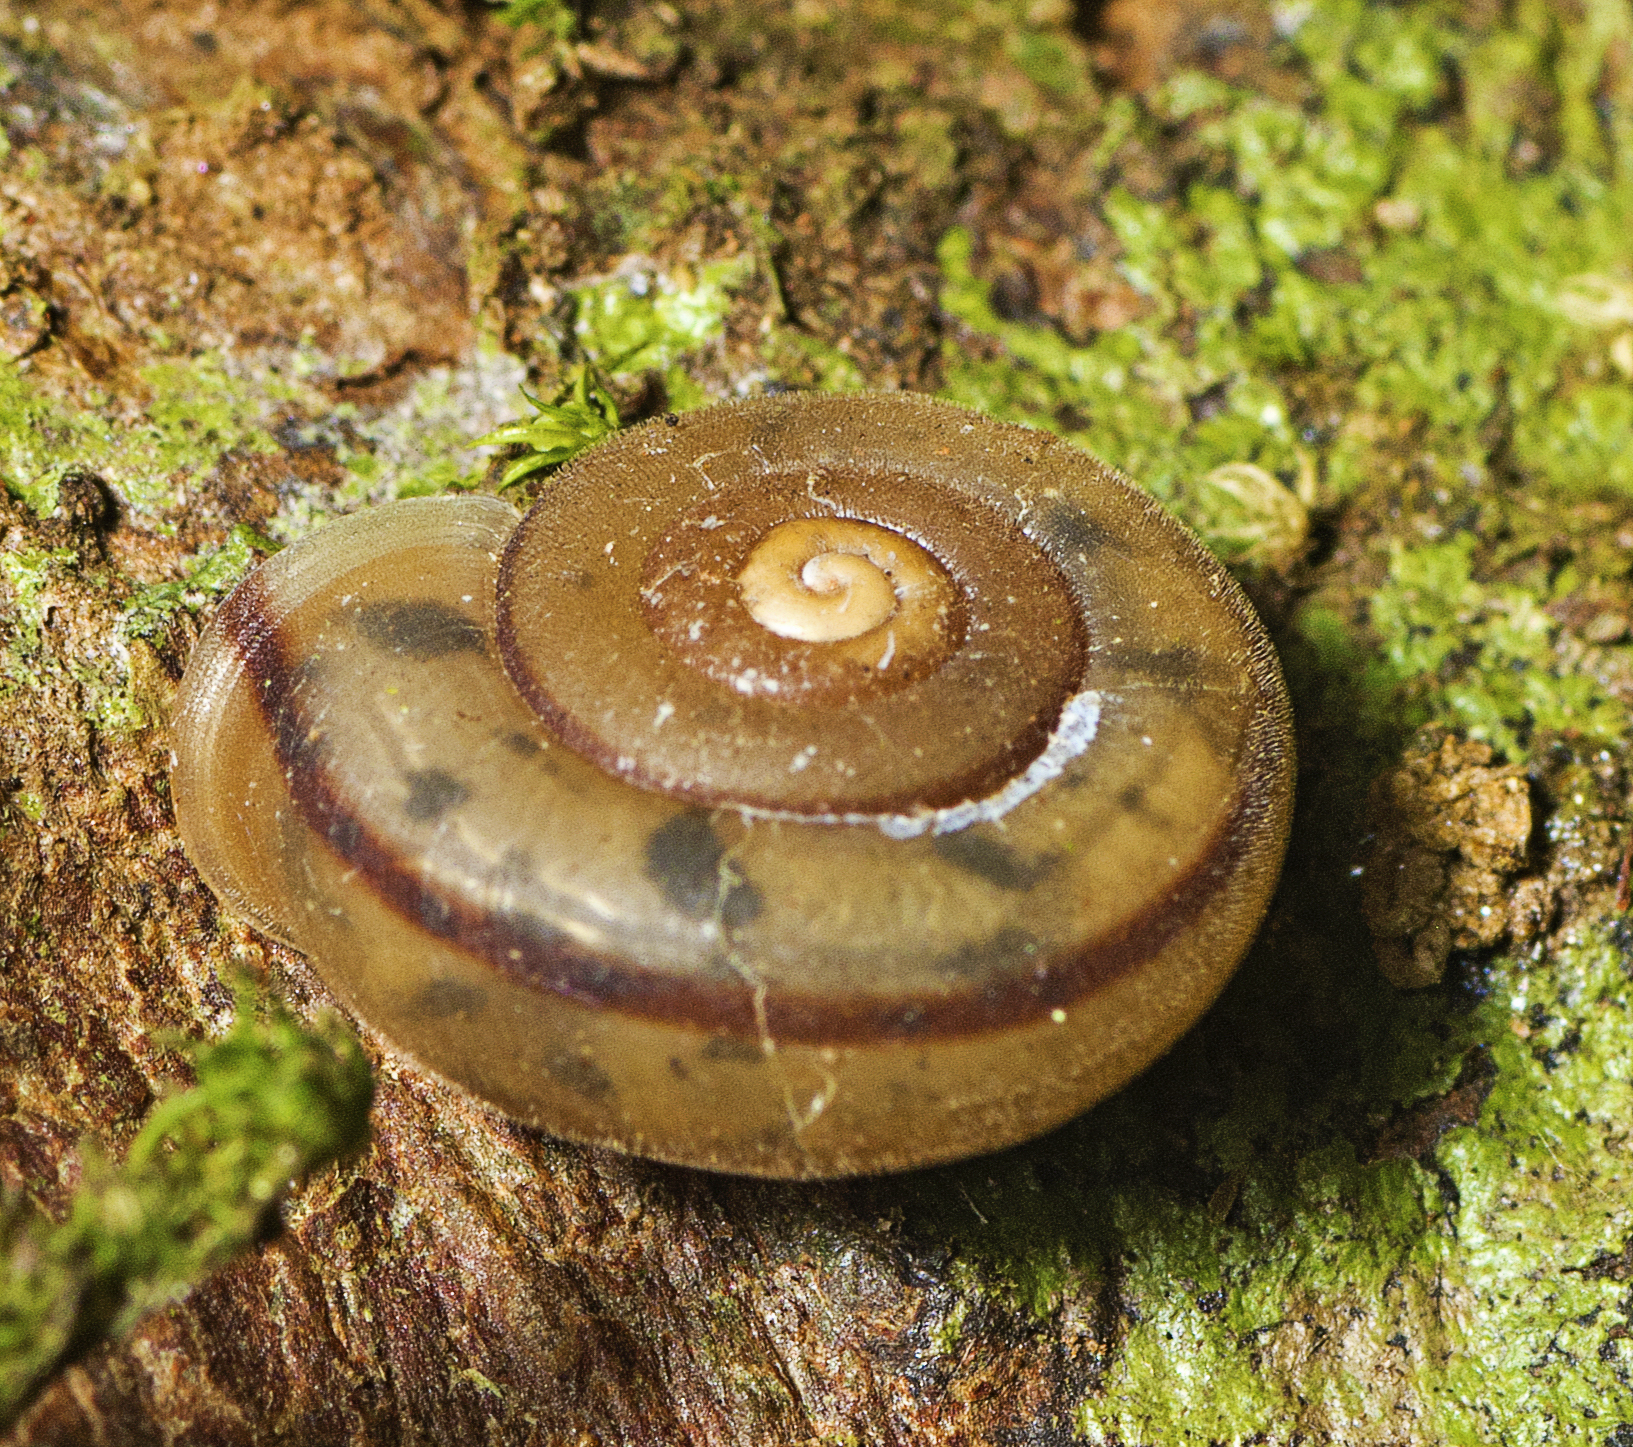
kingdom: Animalia
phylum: Mollusca
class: Gastropoda
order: Stylommatophora
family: Camaenidae
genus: Protolinitis
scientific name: Protolinitis terriirwinae
